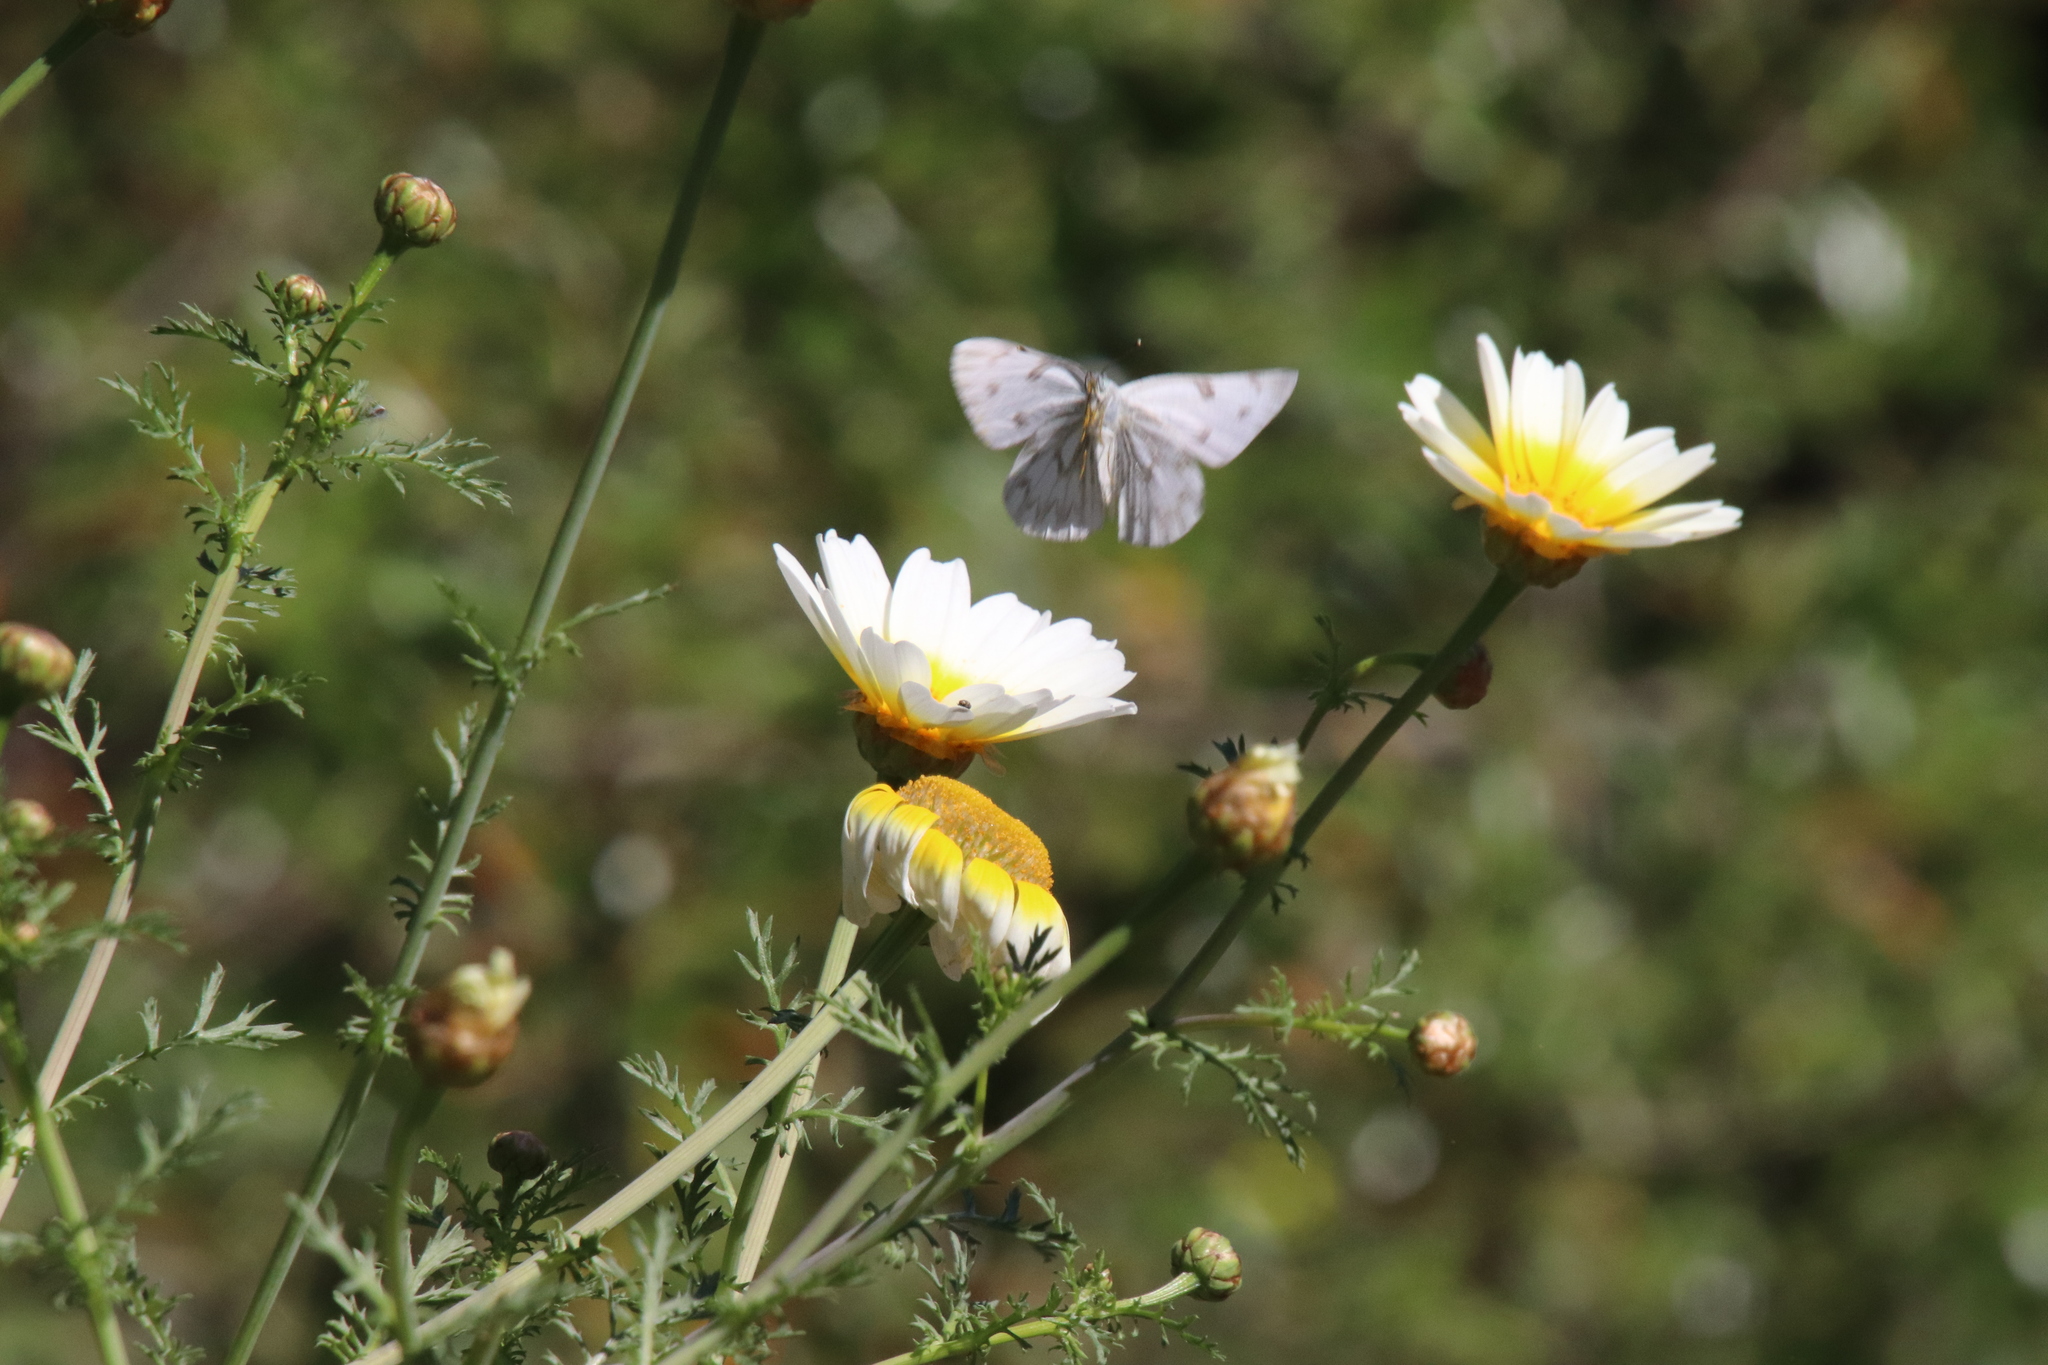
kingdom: Animalia
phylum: Arthropoda
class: Insecta
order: Lepidoptera
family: Pieridae
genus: Pontia
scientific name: Pontia protodice
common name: Checkered white
